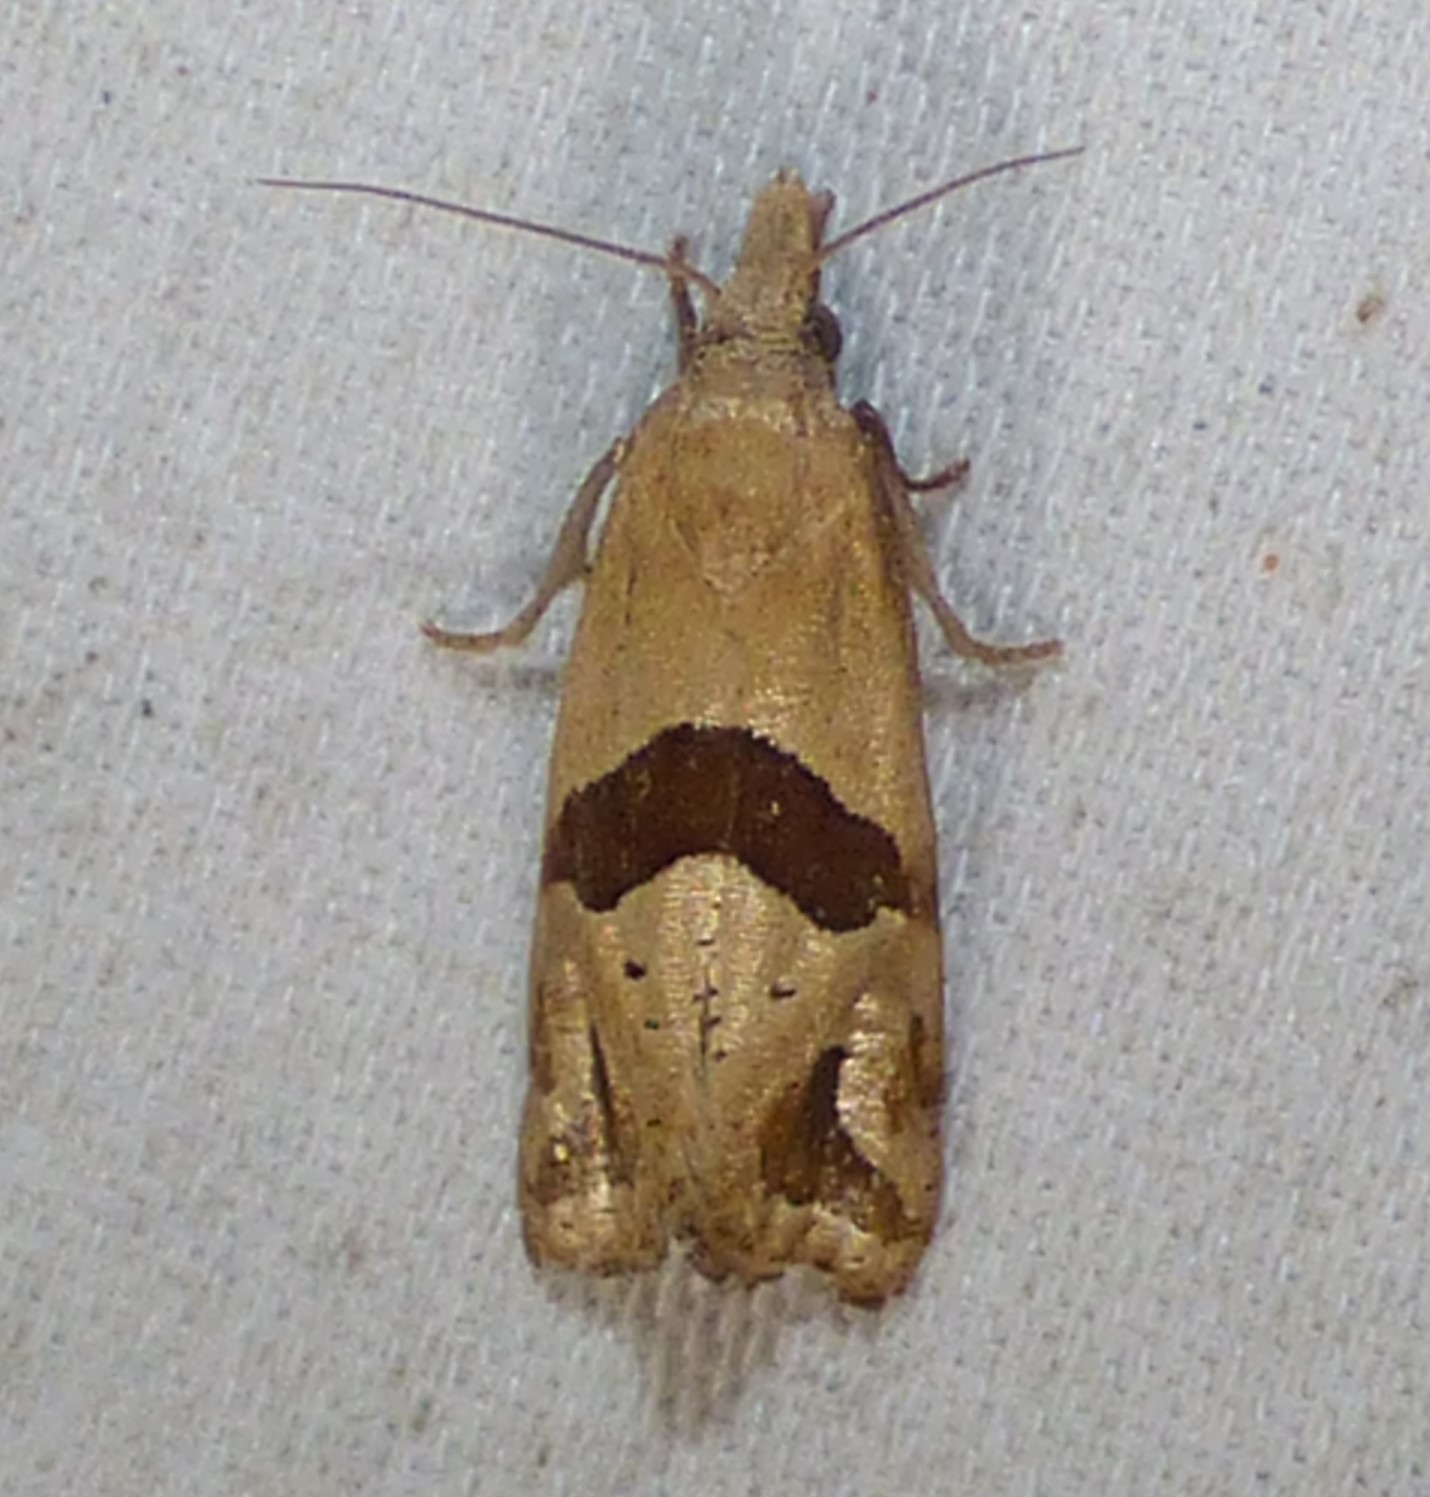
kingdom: Animalia
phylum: Arthropoda
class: Insecta
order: Lepidoptera
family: Tortricidae
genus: Eugnosta
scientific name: Eugnosta sartana
